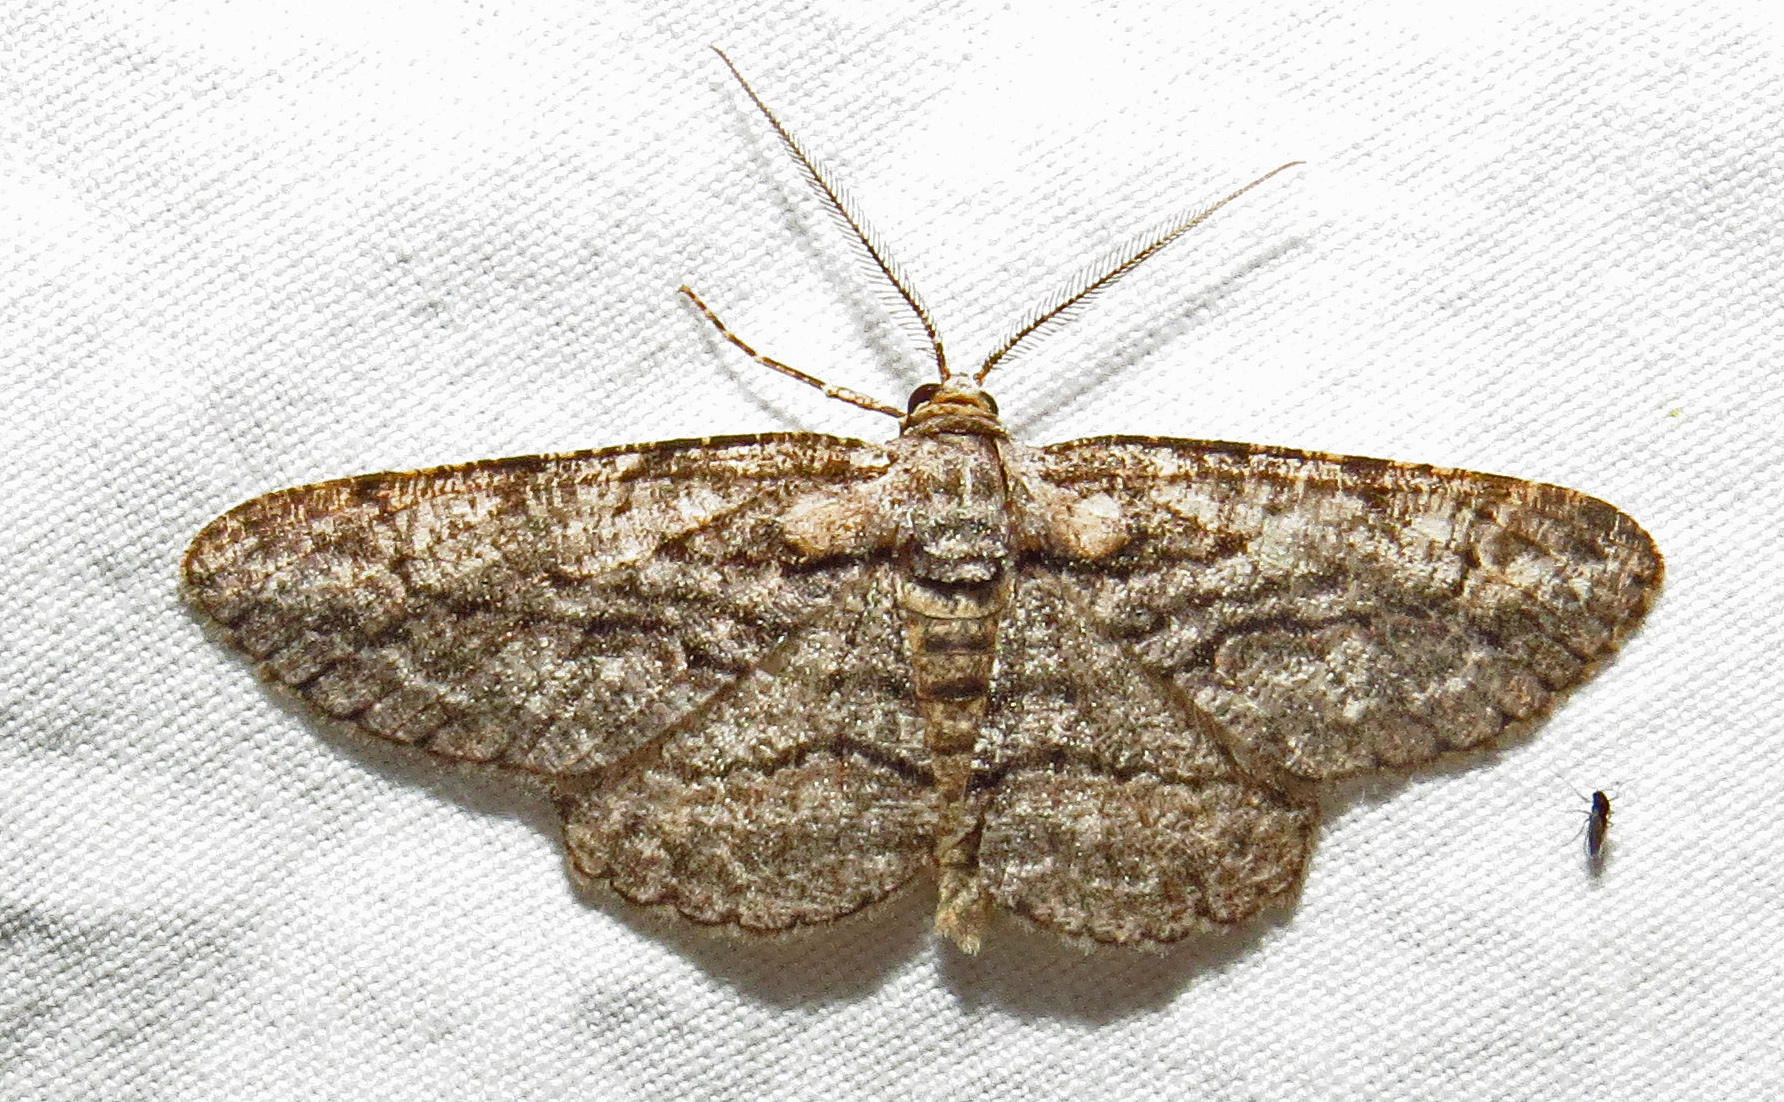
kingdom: Animalia
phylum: Arthropoda
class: Insecta
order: Lepidoptera
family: Geometridae
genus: Anavitrinella
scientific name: Anavitrinella pampinaria
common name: Common gray
